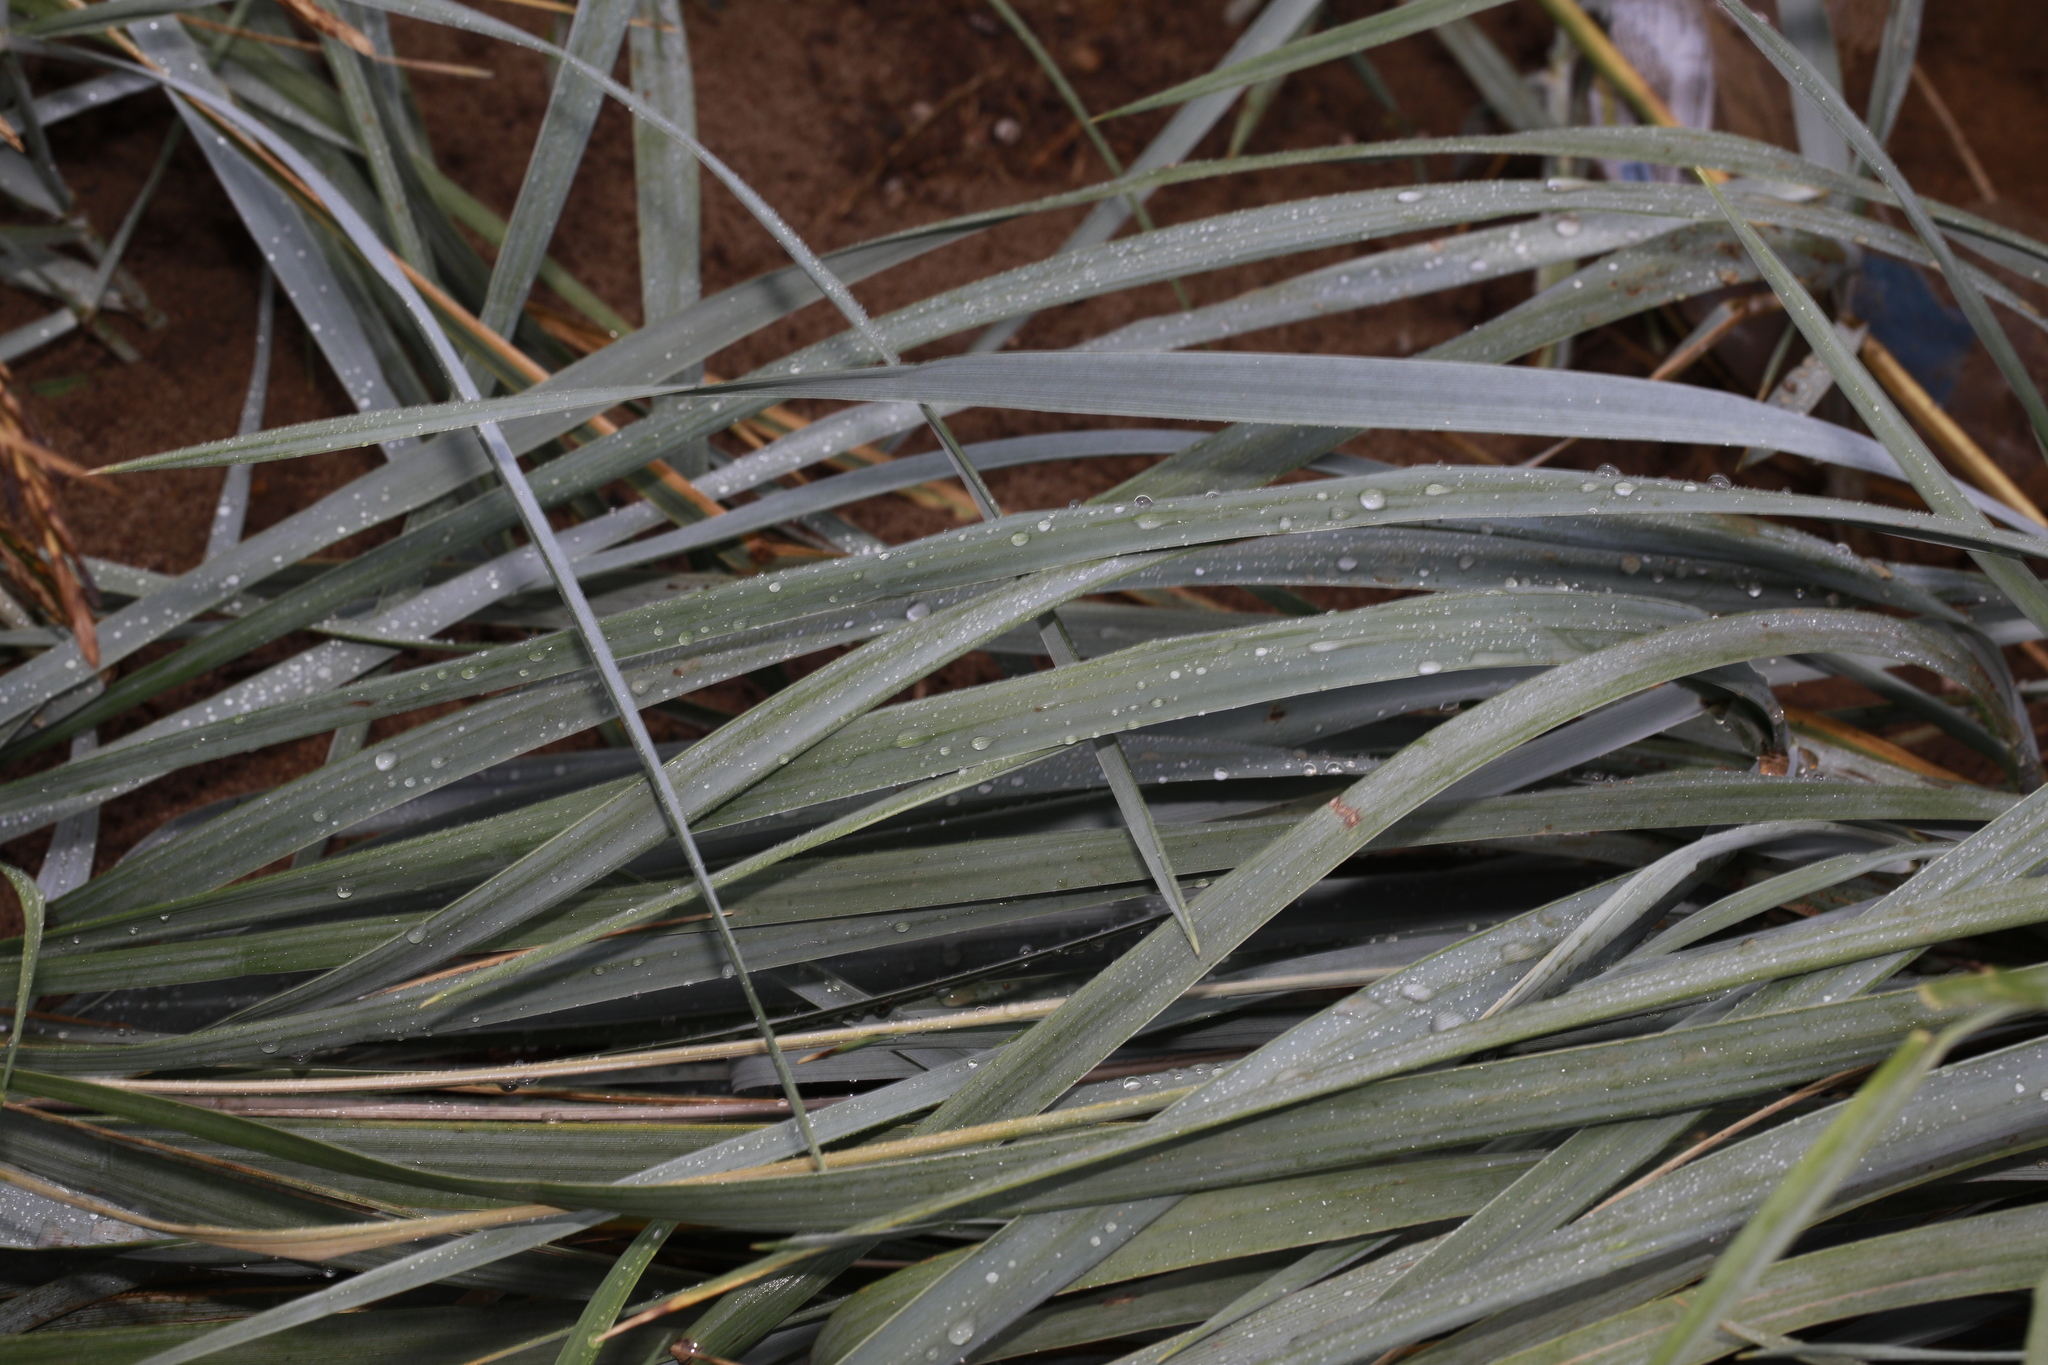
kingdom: Plantae
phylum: Tracheophyta
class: Liliopsida
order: Poales
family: Poaceae
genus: Leymus
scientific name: Leymus arenarius
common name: Lyme-grass
